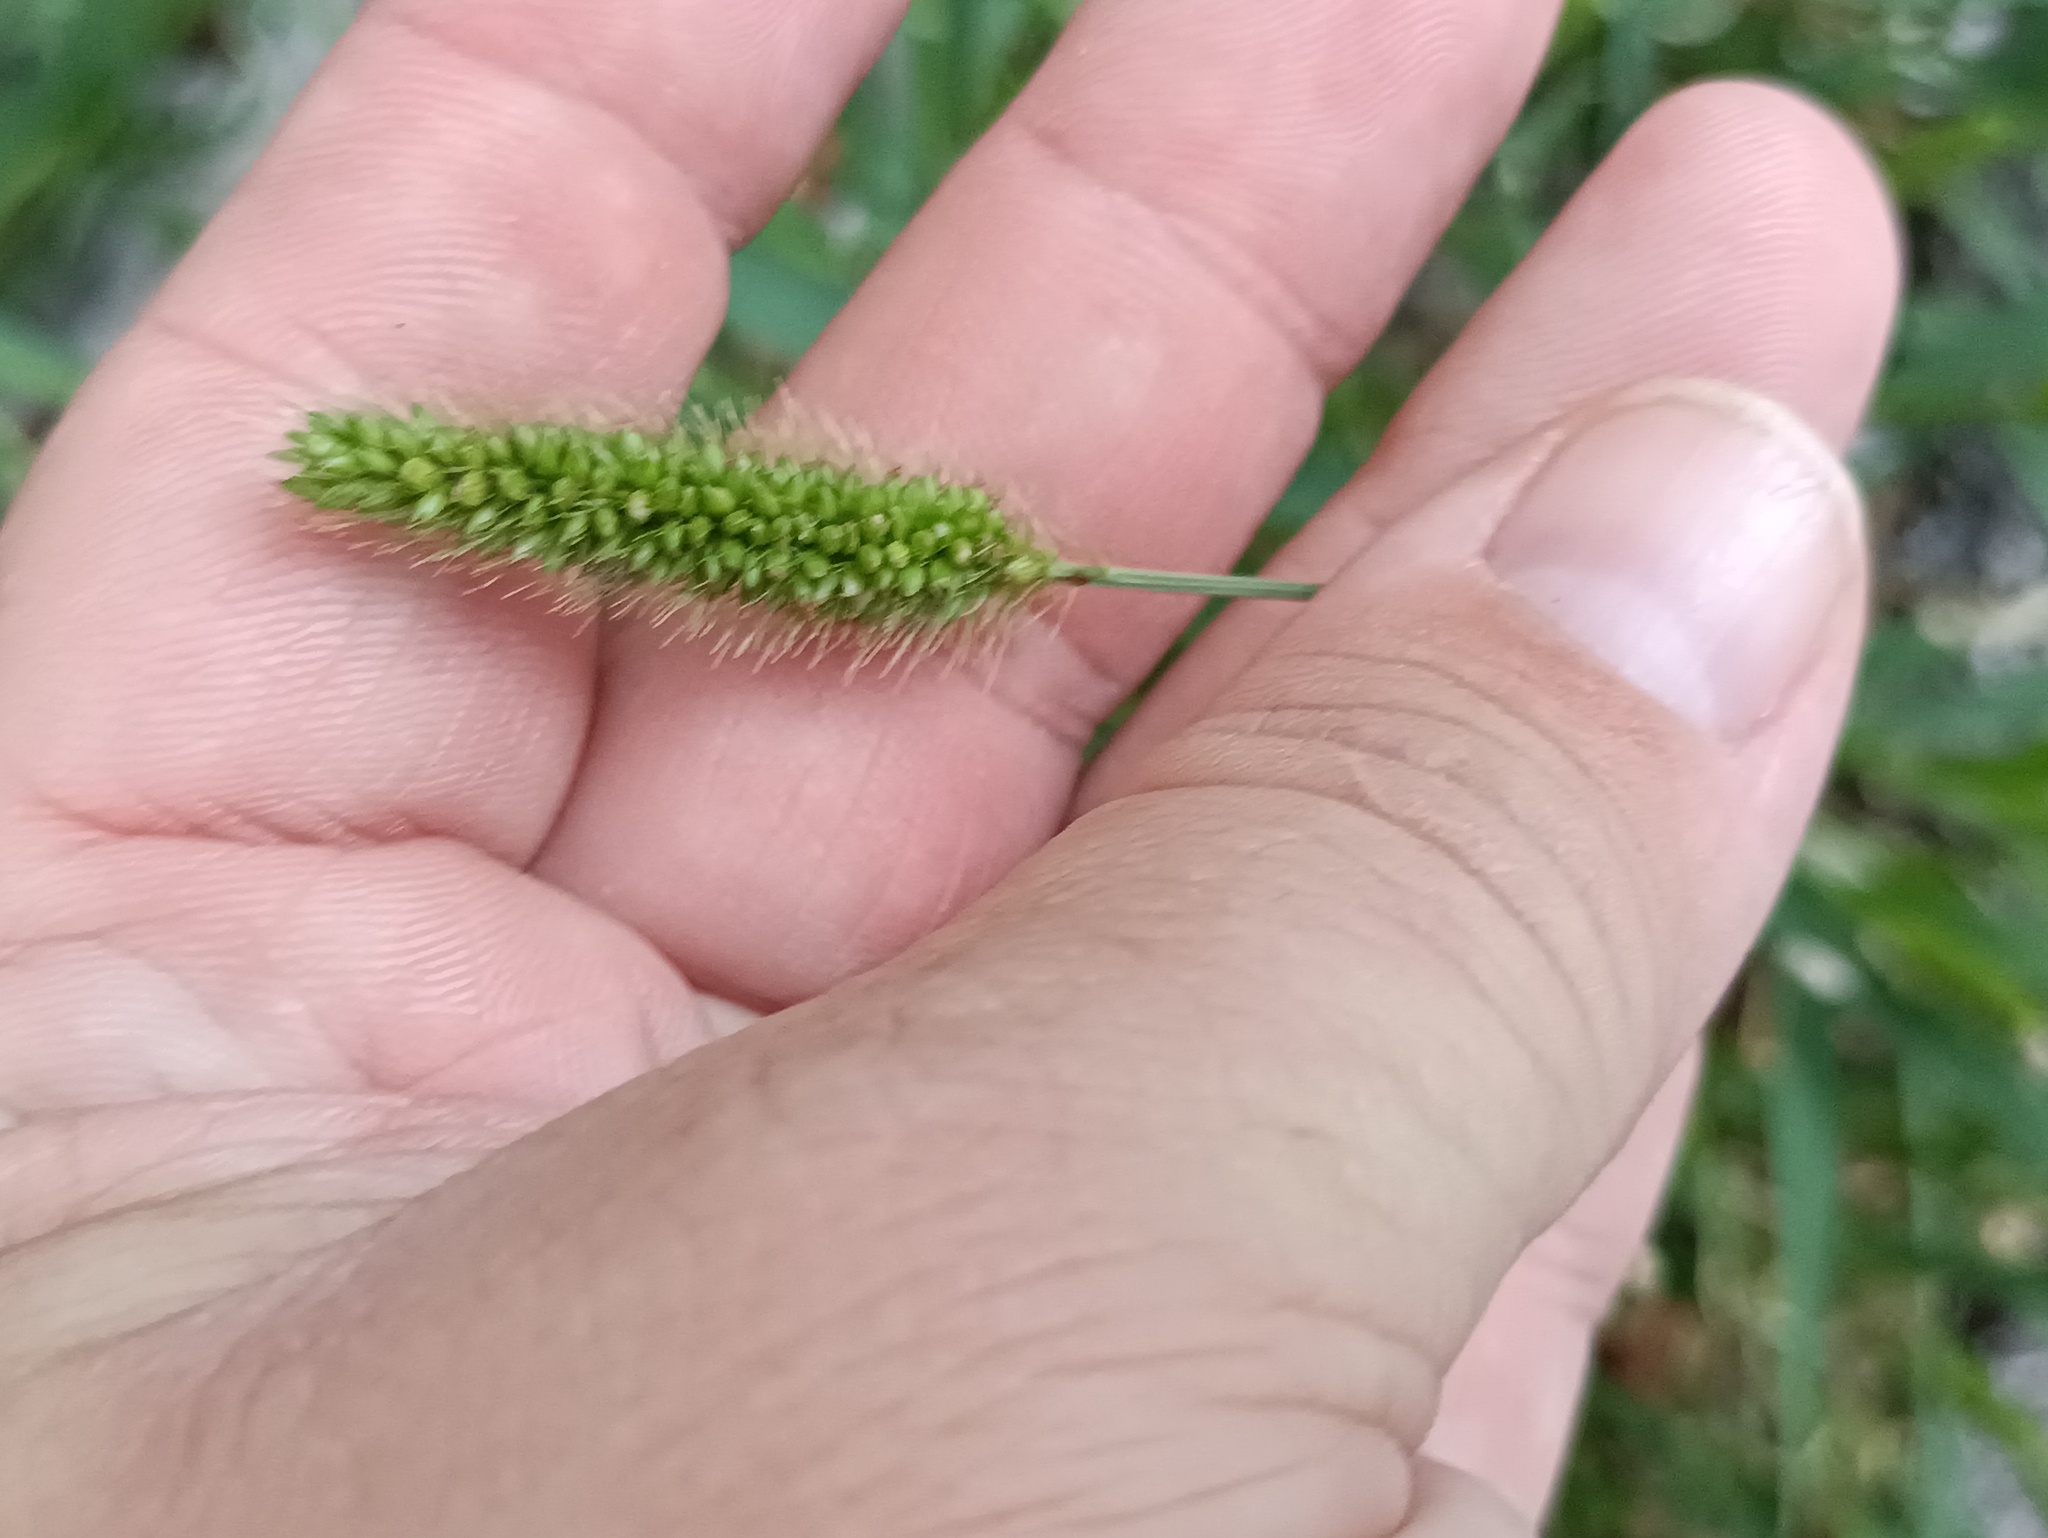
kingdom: Plantae
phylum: Tracheophyta
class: Liliopsida
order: Poales
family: Poaceae
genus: Setaria
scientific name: Setaria viridis
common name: Green bristlegrass
